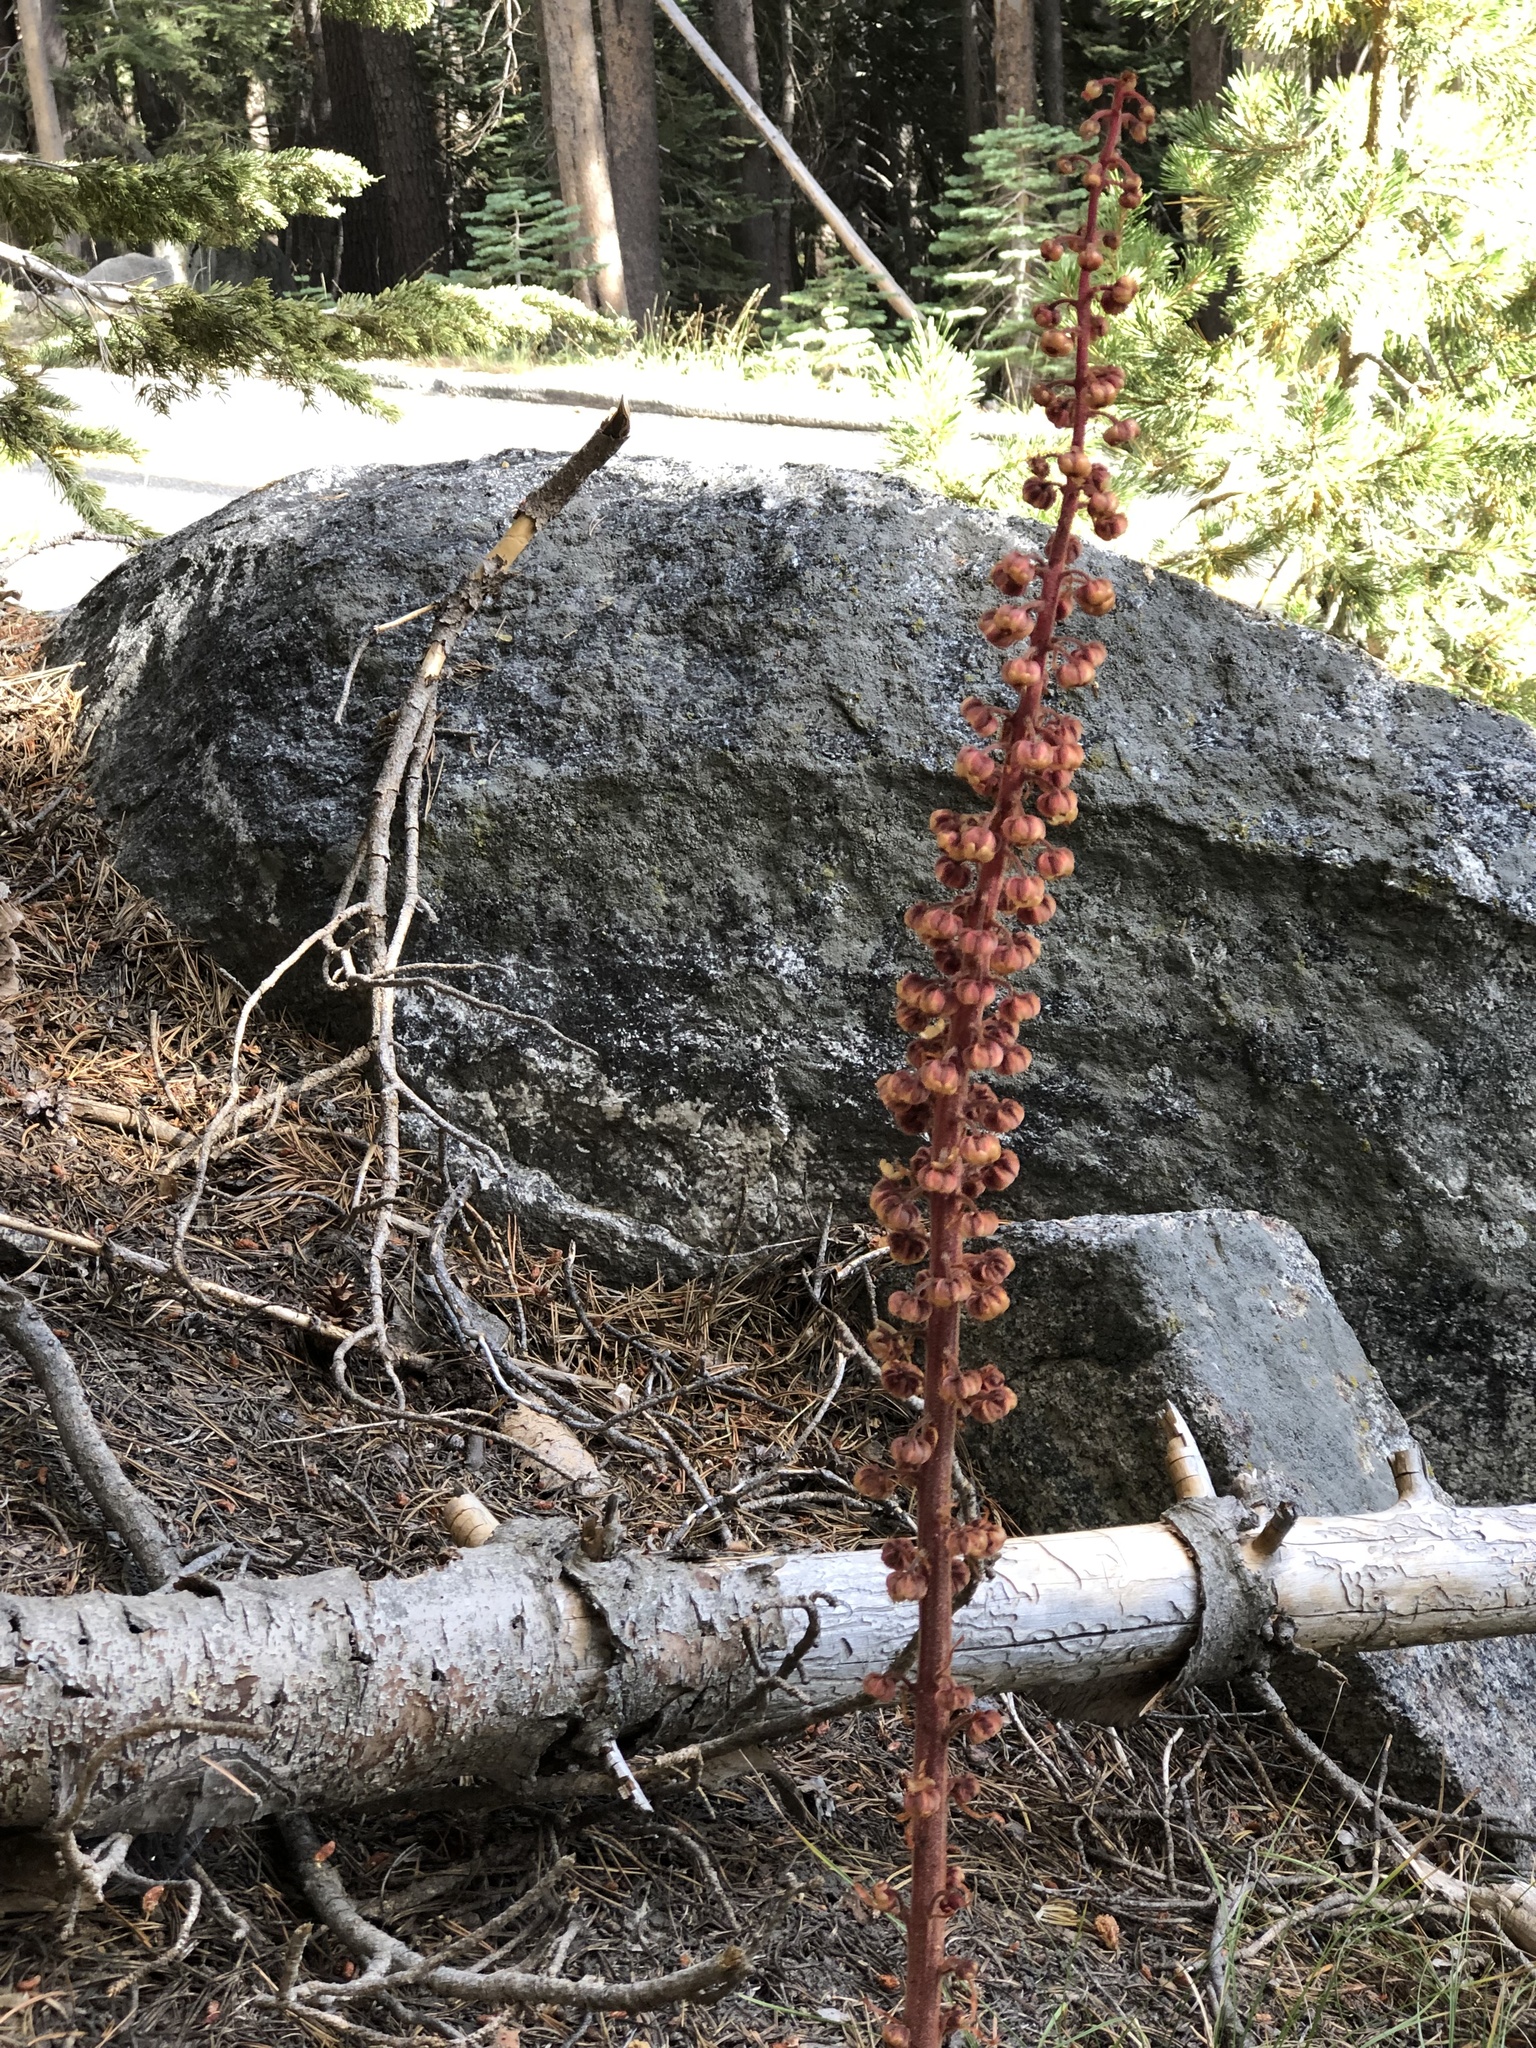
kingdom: Plantae
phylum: Tracheophyta
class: Magnoliopsida
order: Ericales
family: Ericaceae
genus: Pterospora
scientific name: Pterospora andromedea
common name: Giant bird's-nest
